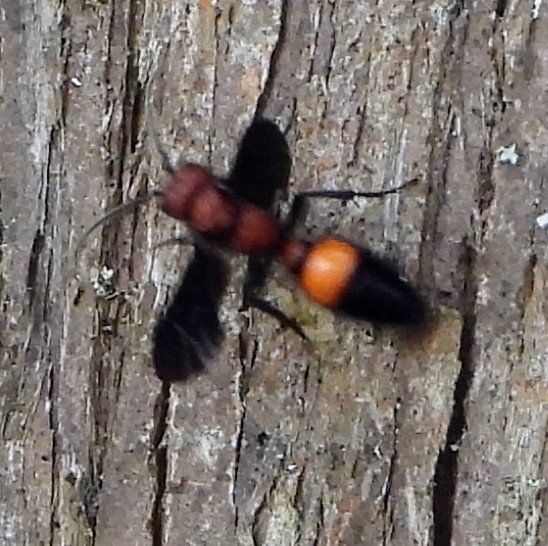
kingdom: Animalia
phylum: Arthropoda
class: Insecta
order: Hymenoptera
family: Mutillidae
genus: Sphaeropthalma
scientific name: Sphaeropthalma
